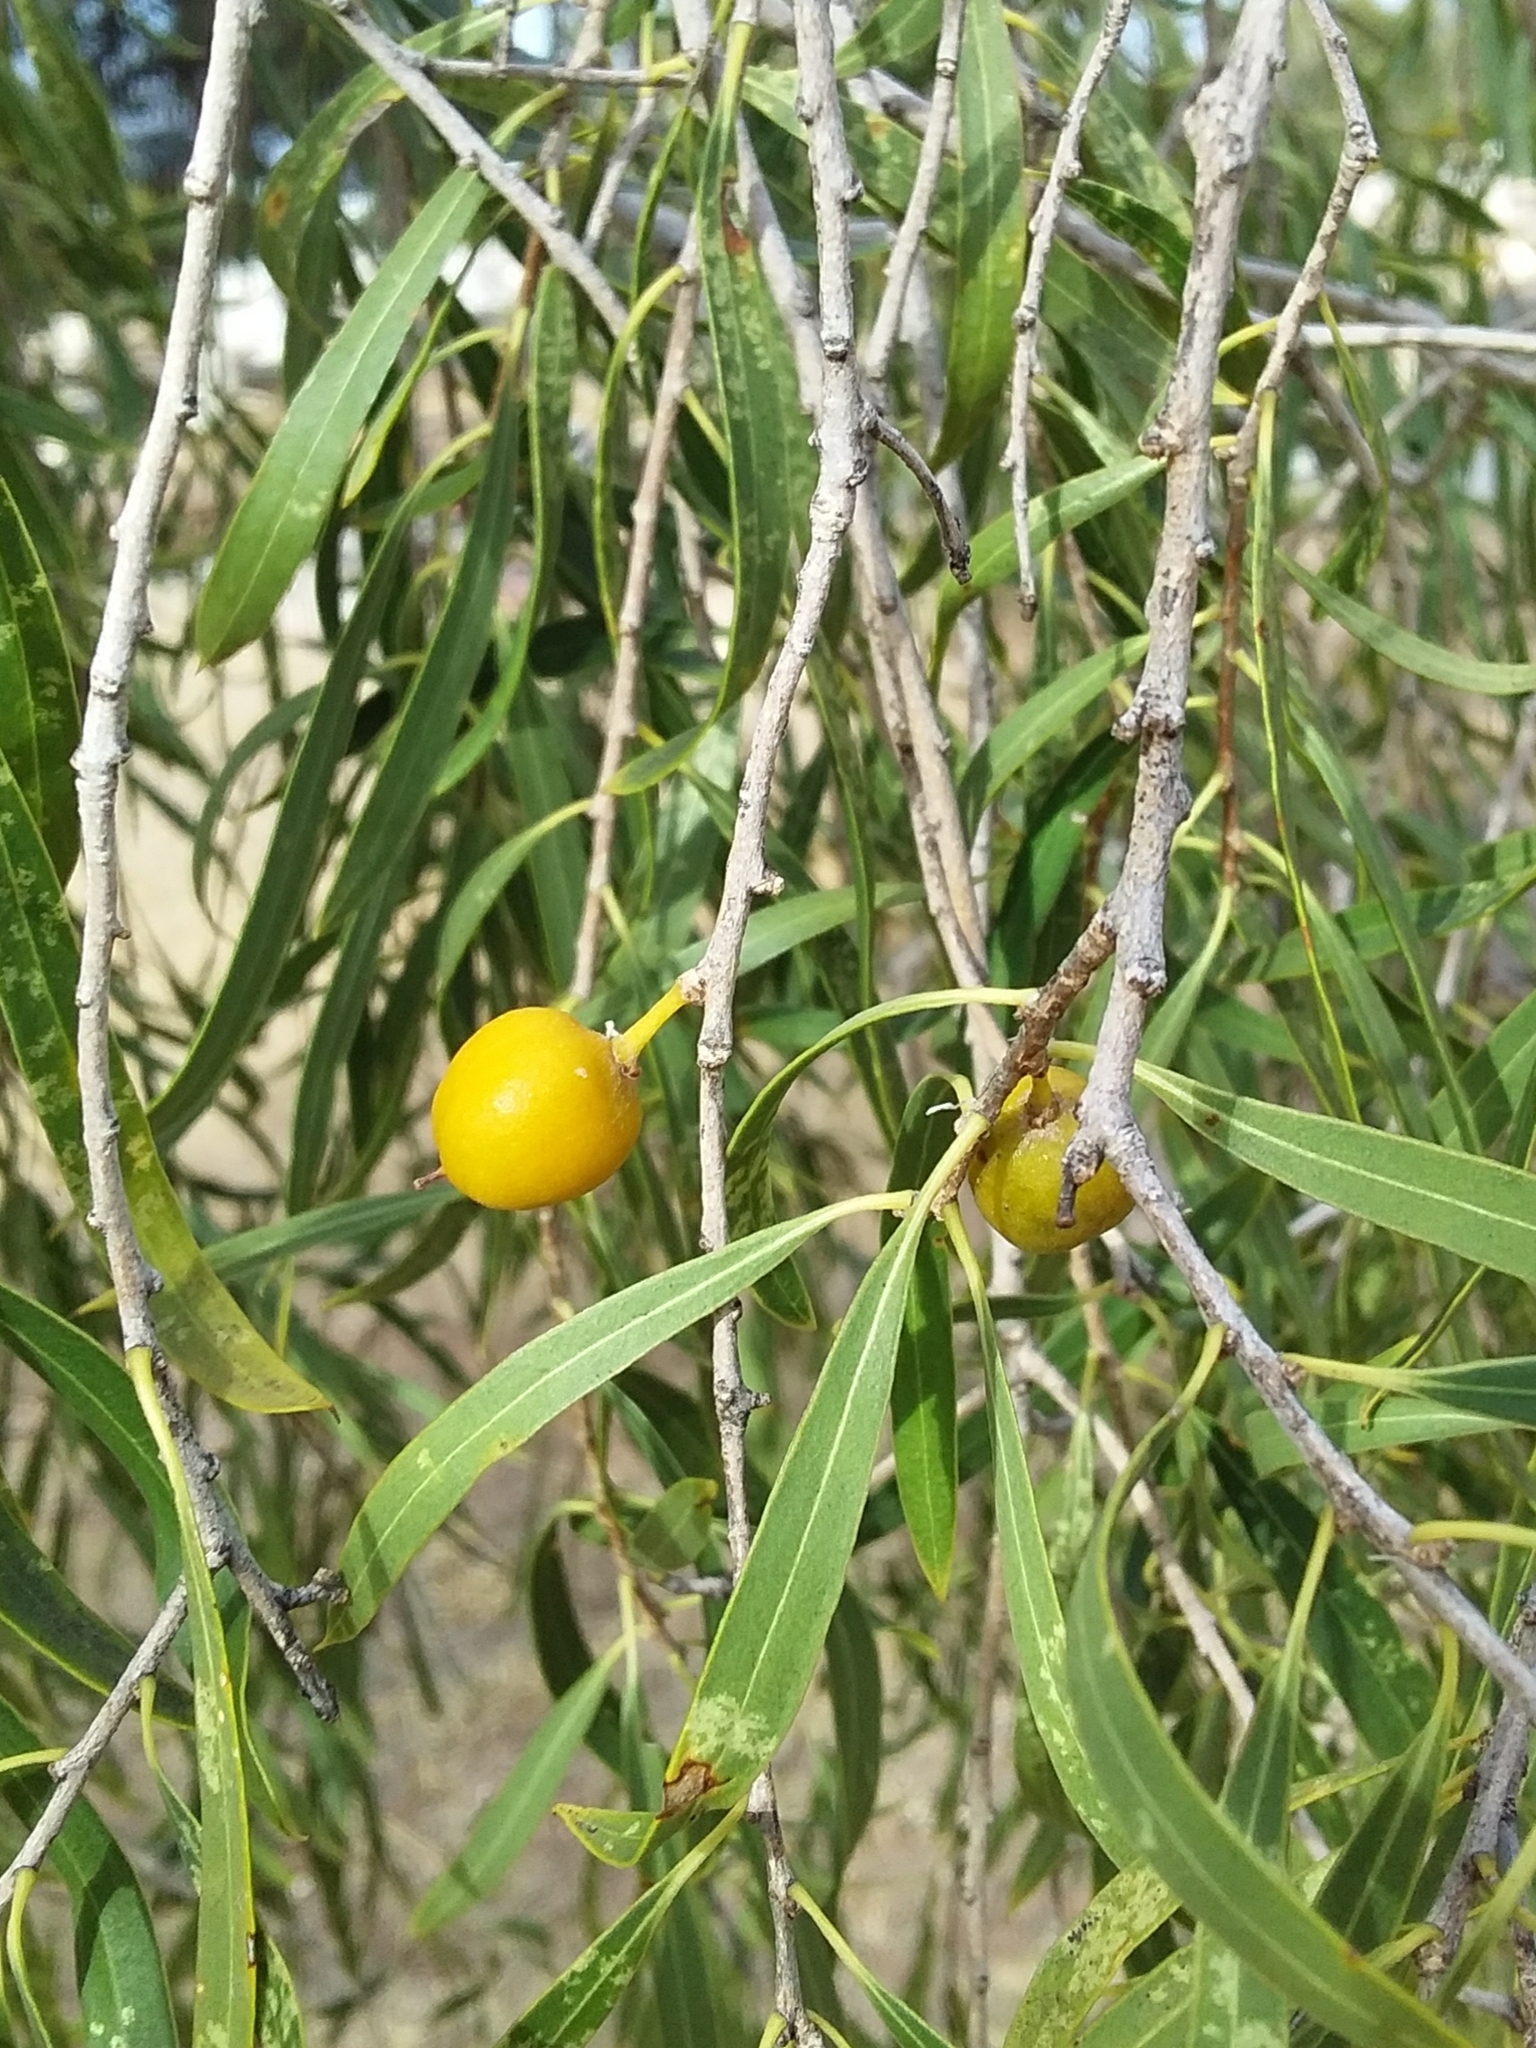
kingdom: Plantae
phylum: Tracheophyta
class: Magnoliopsida
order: Apiales
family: Pittosporaceae
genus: Pittosporum
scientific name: Pittosporum angustifolium
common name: Weeping pittosporum
